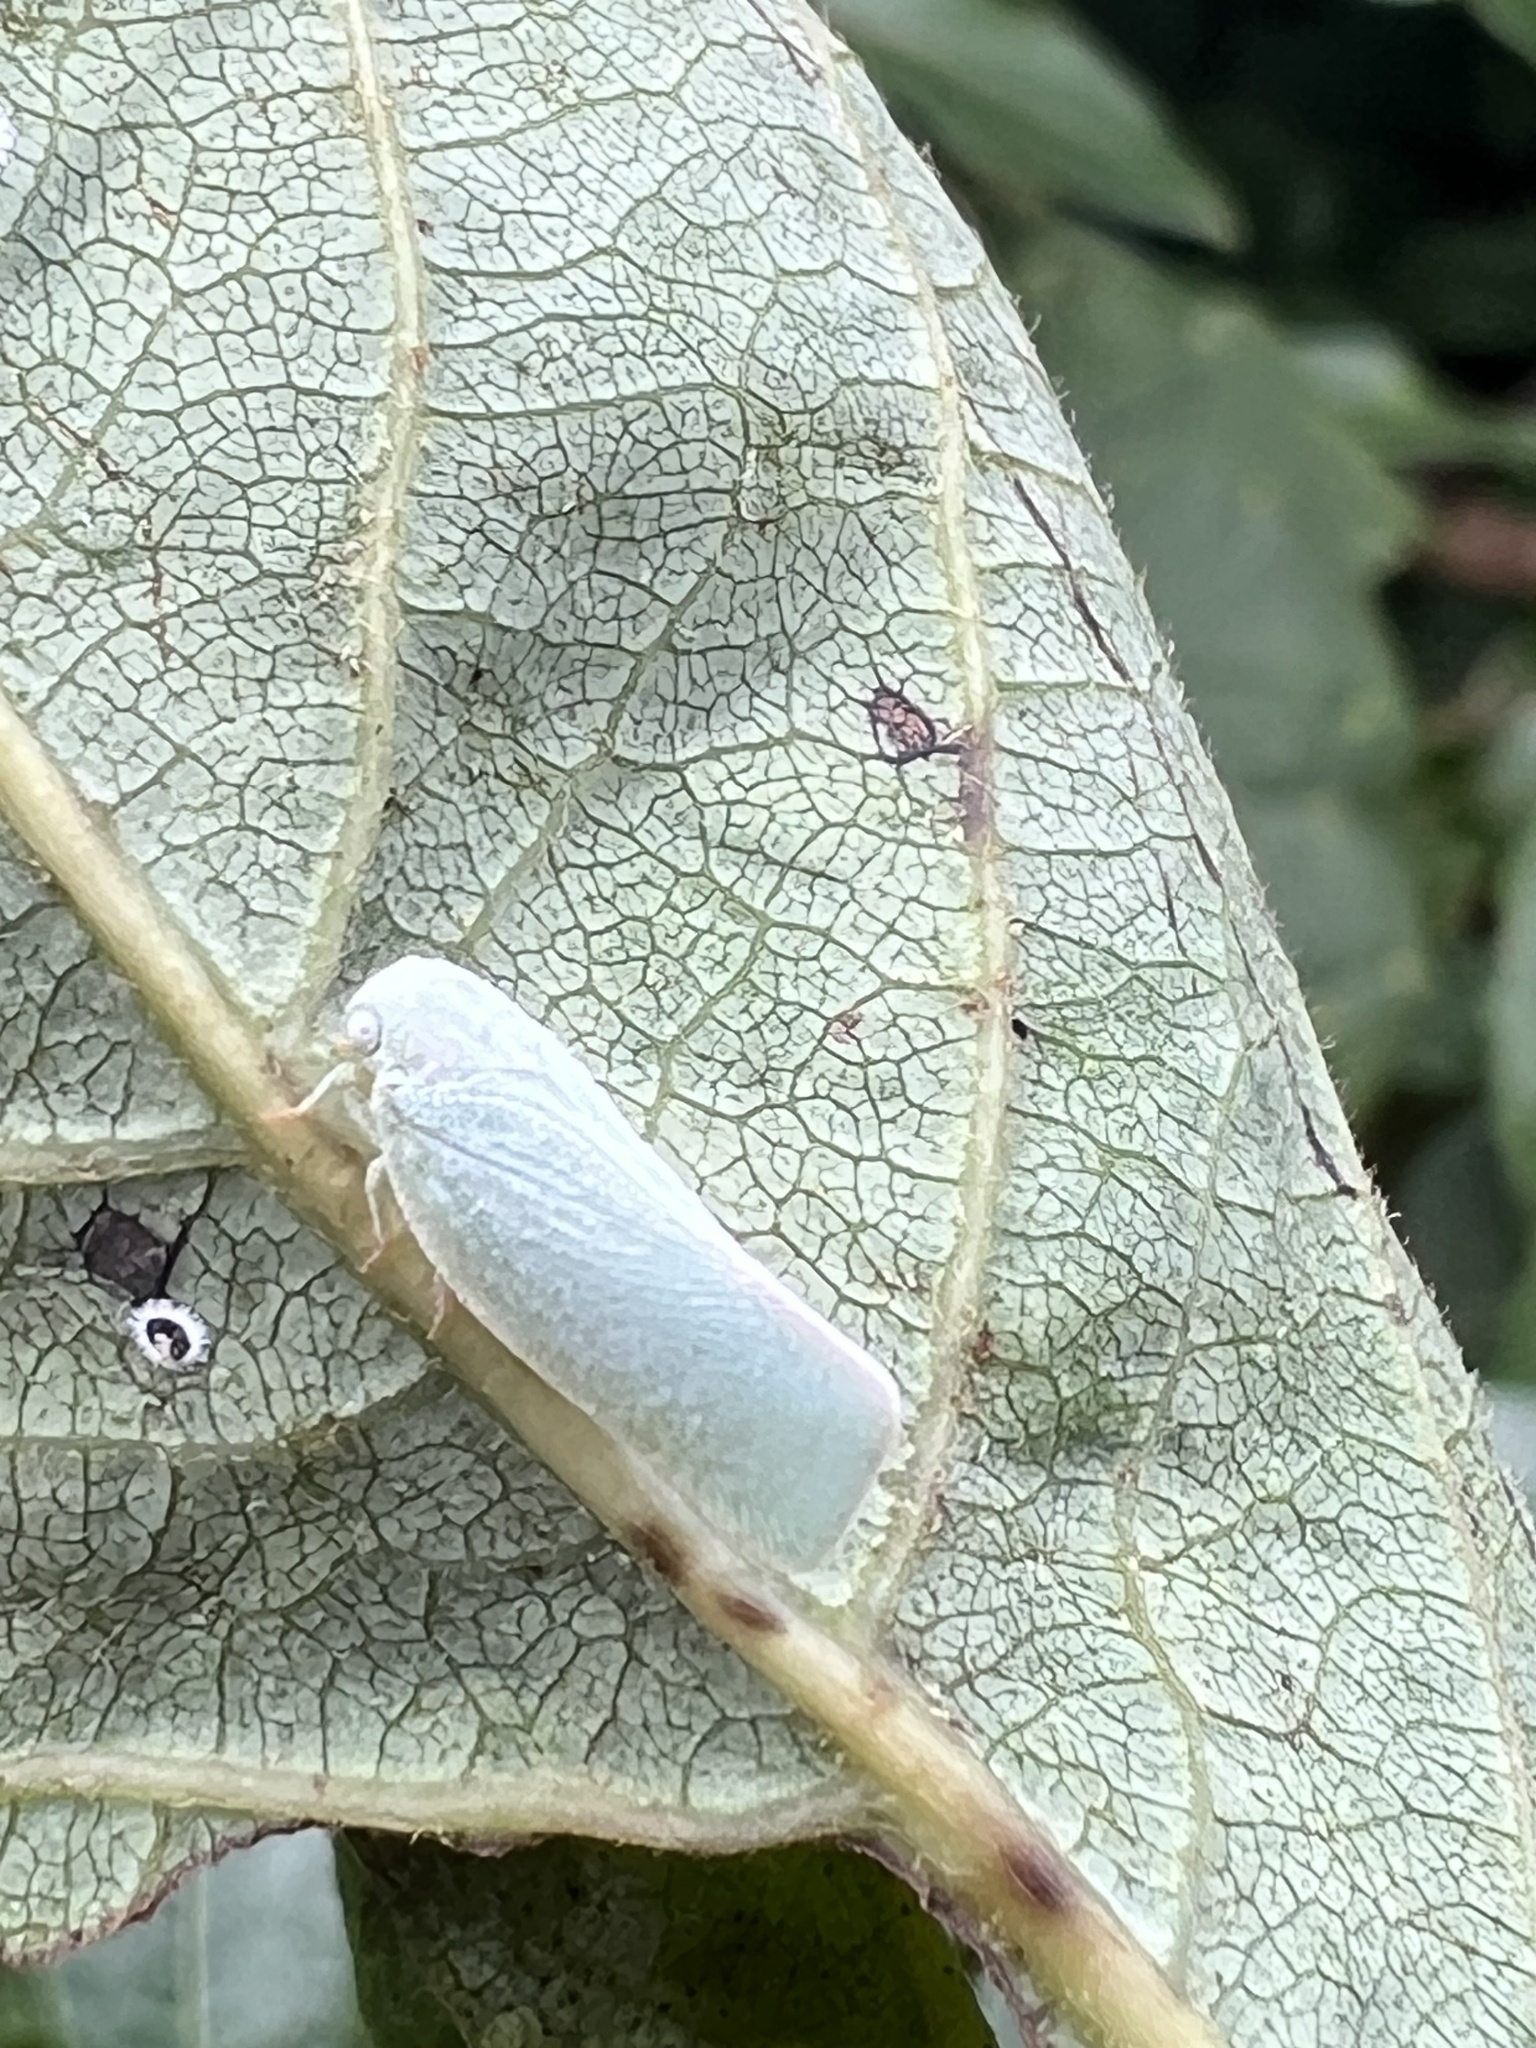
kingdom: Animalia
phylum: Arthropoda
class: Insecta
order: Hemiptera
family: Flatidae
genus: Flatormenis
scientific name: Flatormenis proxima
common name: Northern flatid planthopper
